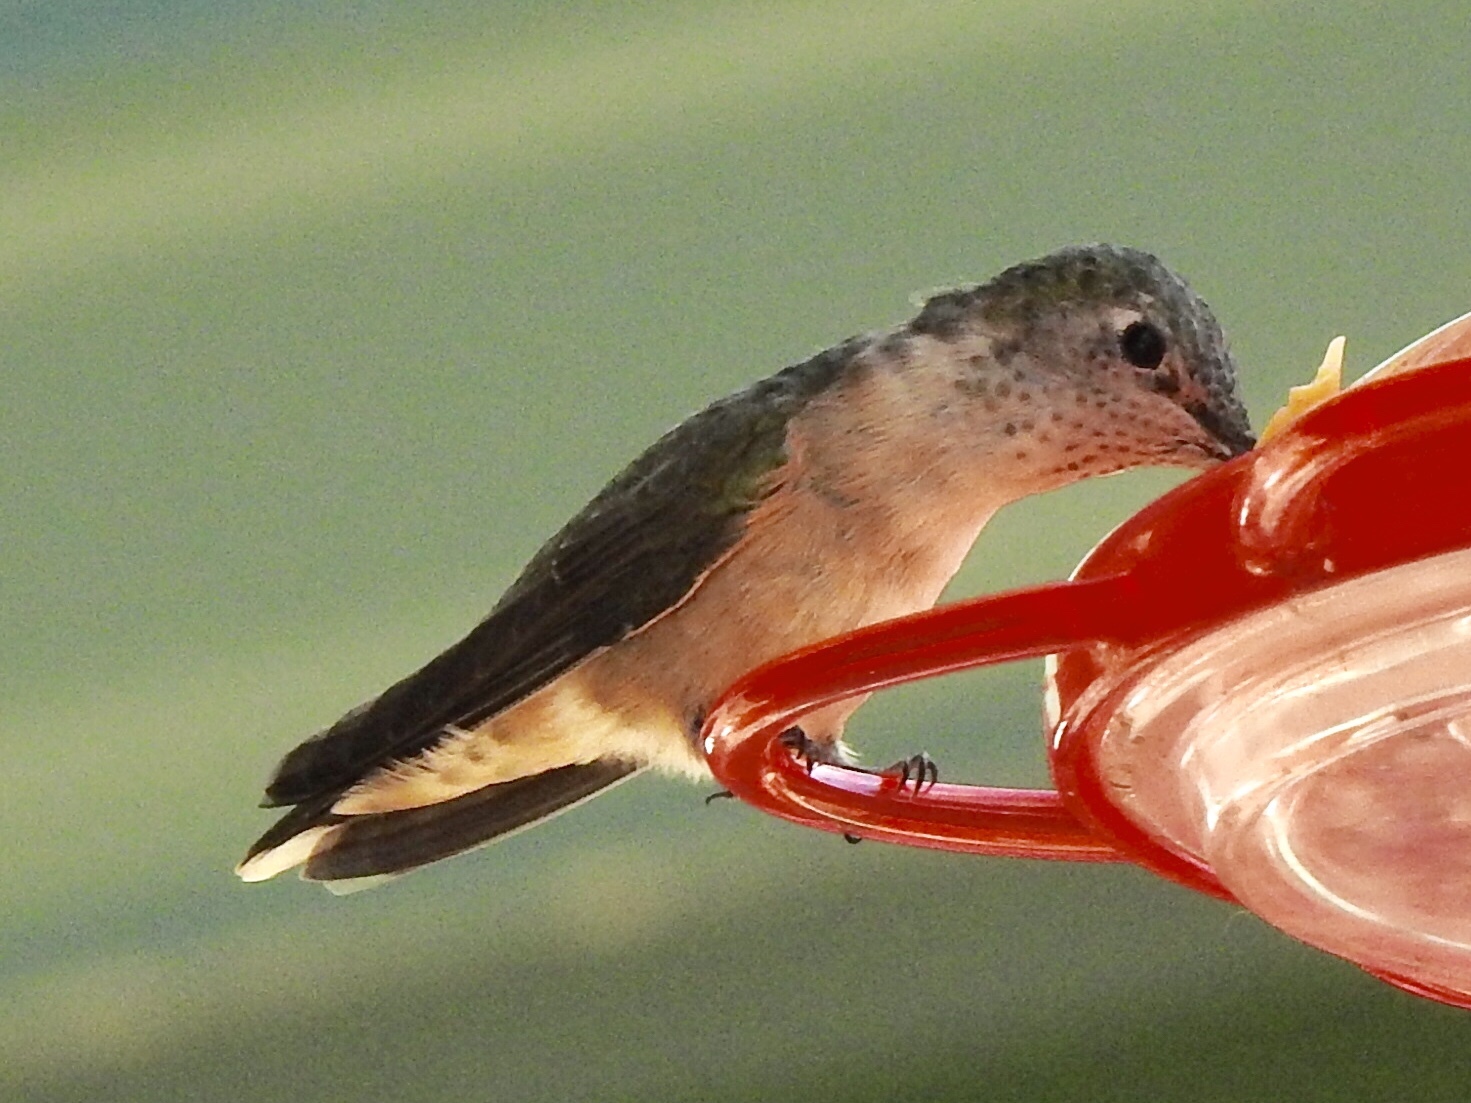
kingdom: Animalia
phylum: Chordata
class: Aves
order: Apodiformes
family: Trochilidae
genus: Selasphorus
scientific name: Selasphorus platycercus
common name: Broad-tailed hummingbird
